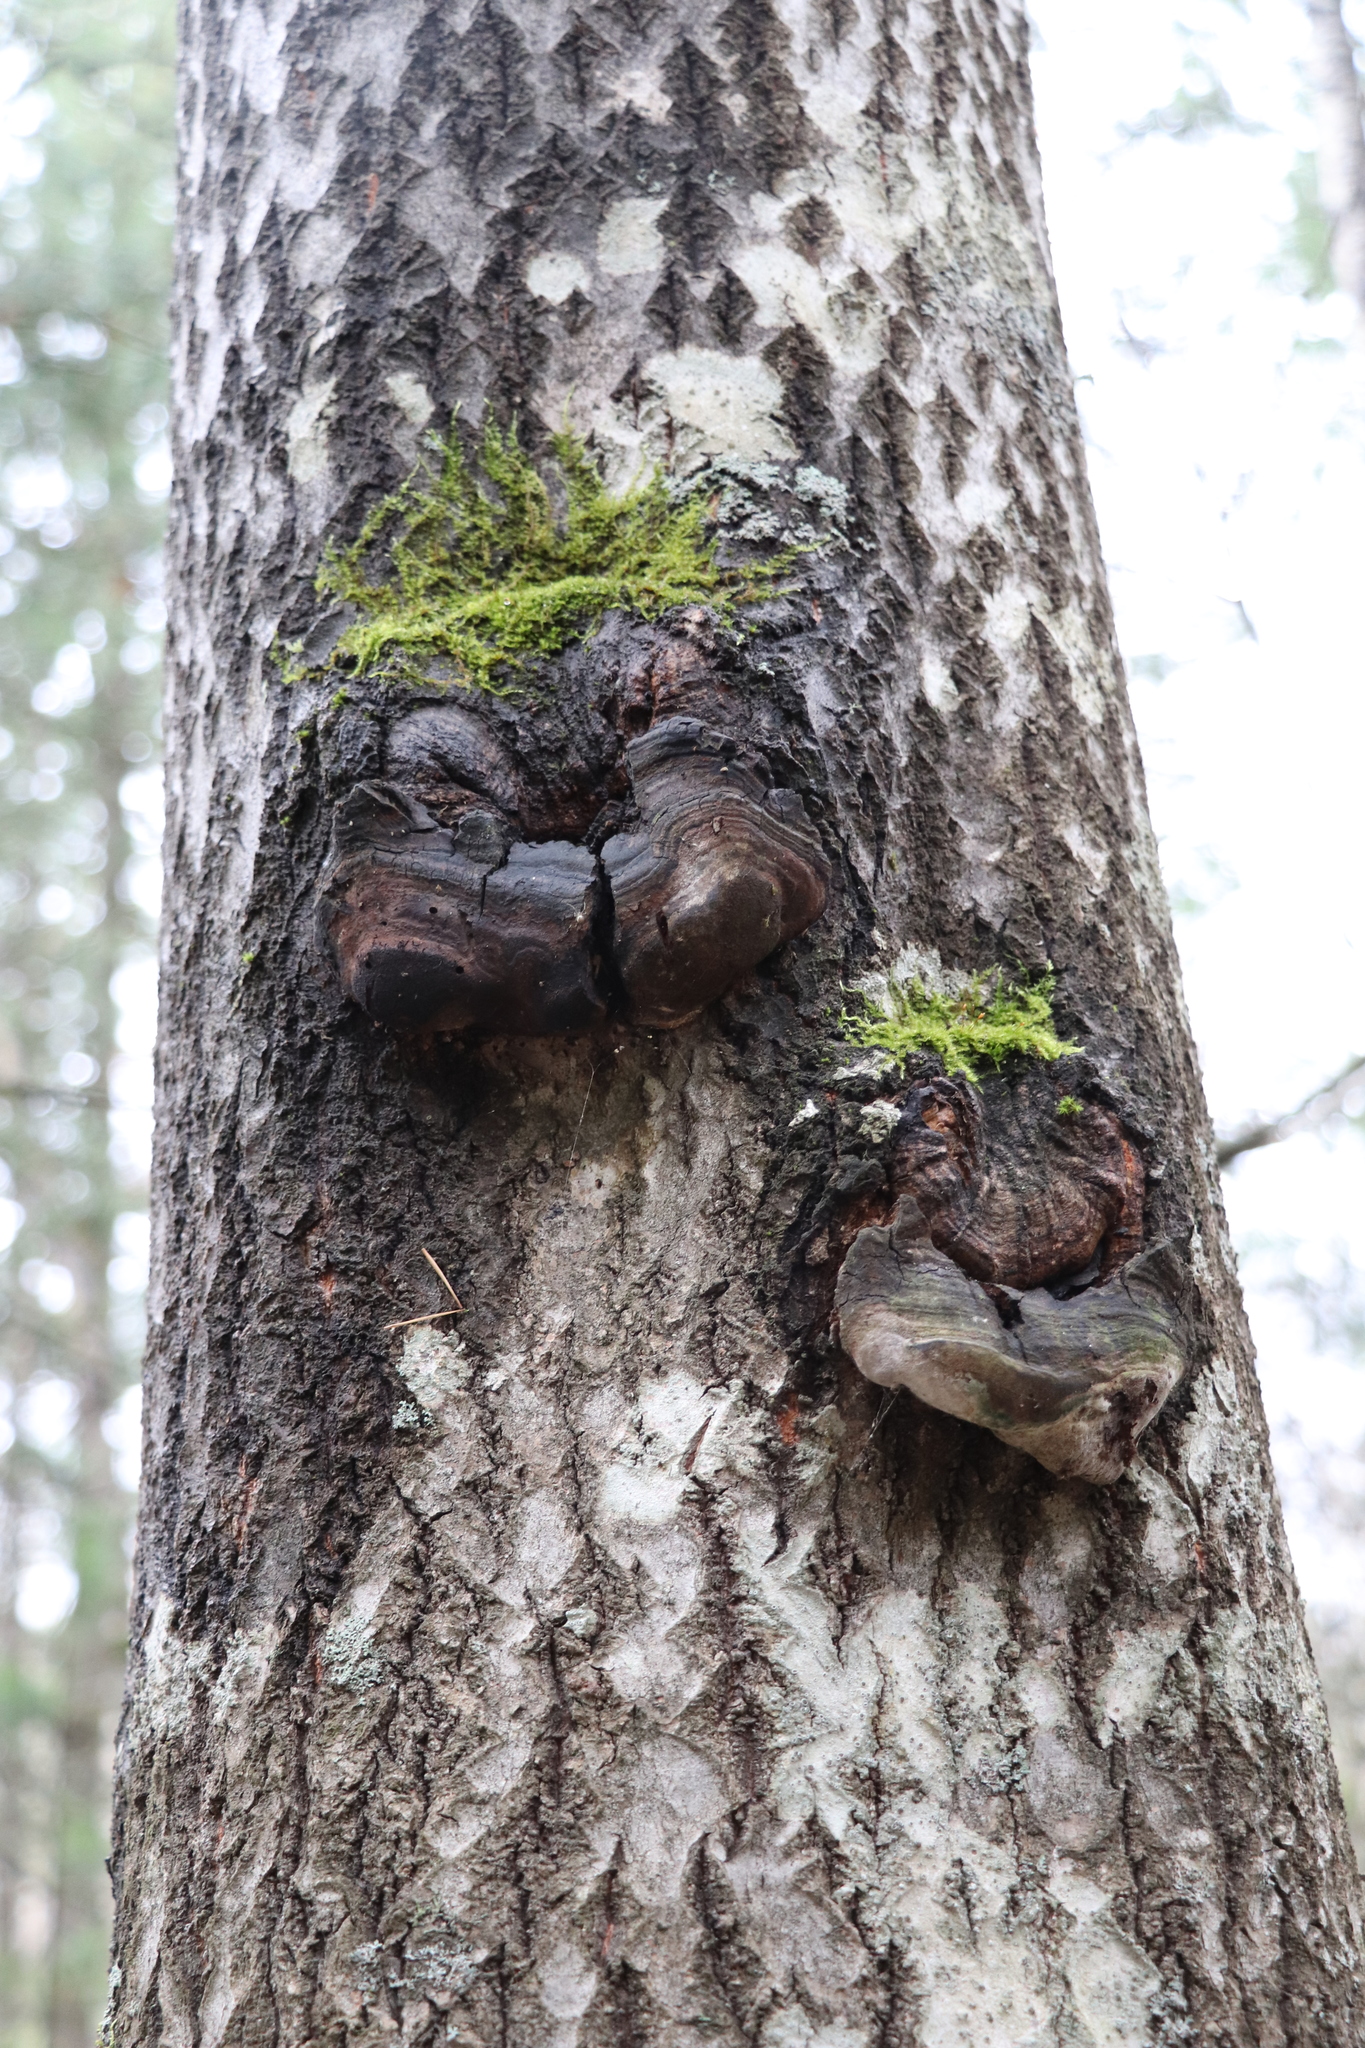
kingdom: Fungi
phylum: Basidiomycota
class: Agaricomycetes
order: Hymenochaetales
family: Hymenochaetaceae
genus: Phellinus
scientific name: Phellinus tremulae
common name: Aspen bracket
